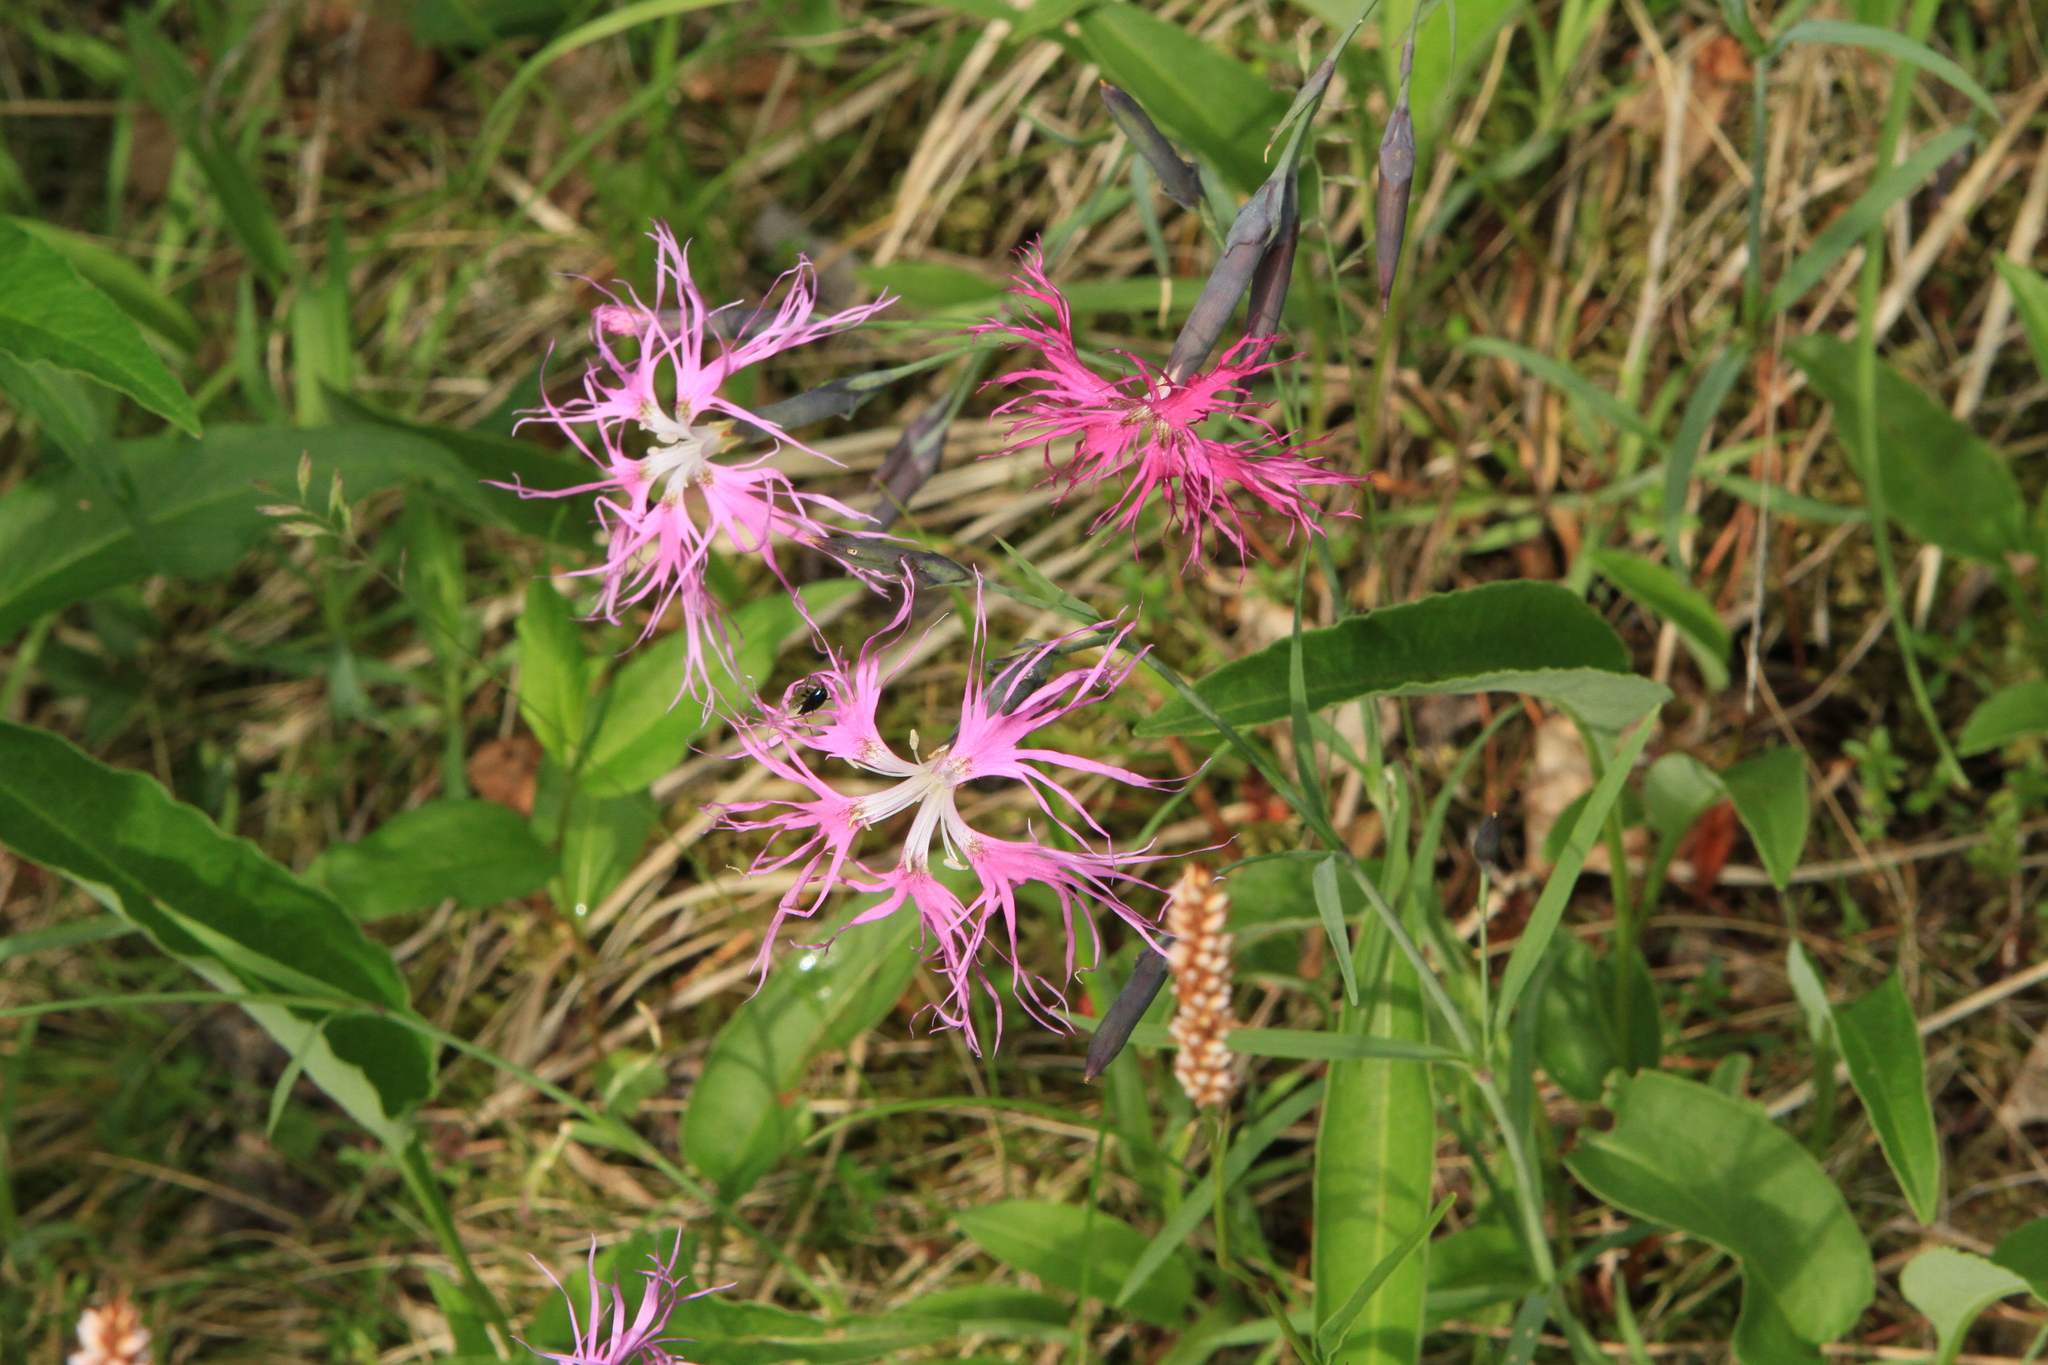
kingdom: Plantae
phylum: Tracheophyta
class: Magnoliopsida
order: Caryophyllales
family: Caryophyllaceae
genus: Dianthus
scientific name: Dianthus superbus
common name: Fringed pink
